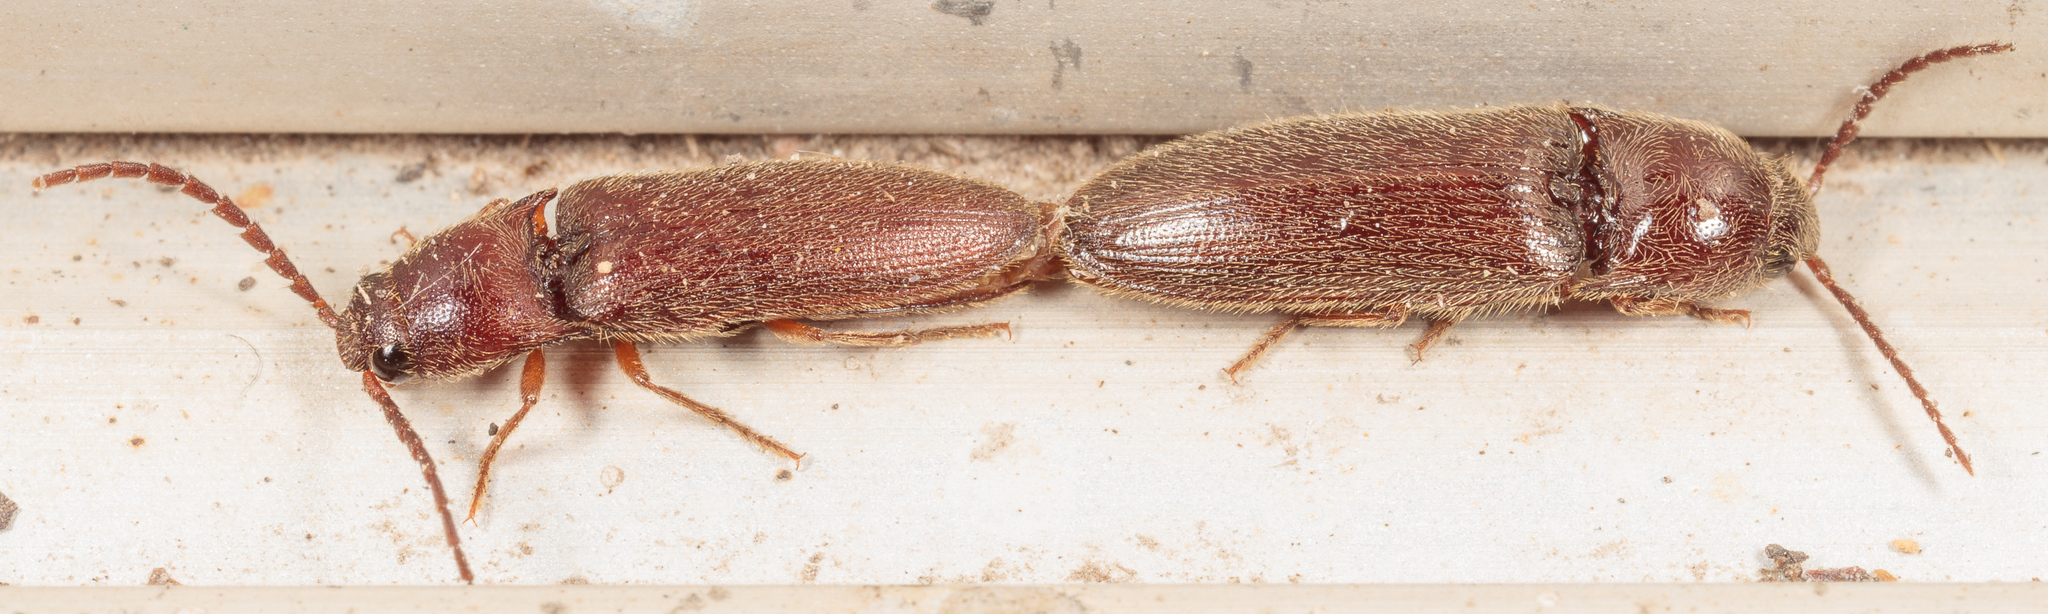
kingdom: Animalia
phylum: Arthropoda
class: Insecta
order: Coleoptera
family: Elateridae
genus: Dipropus
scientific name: Dipropus
